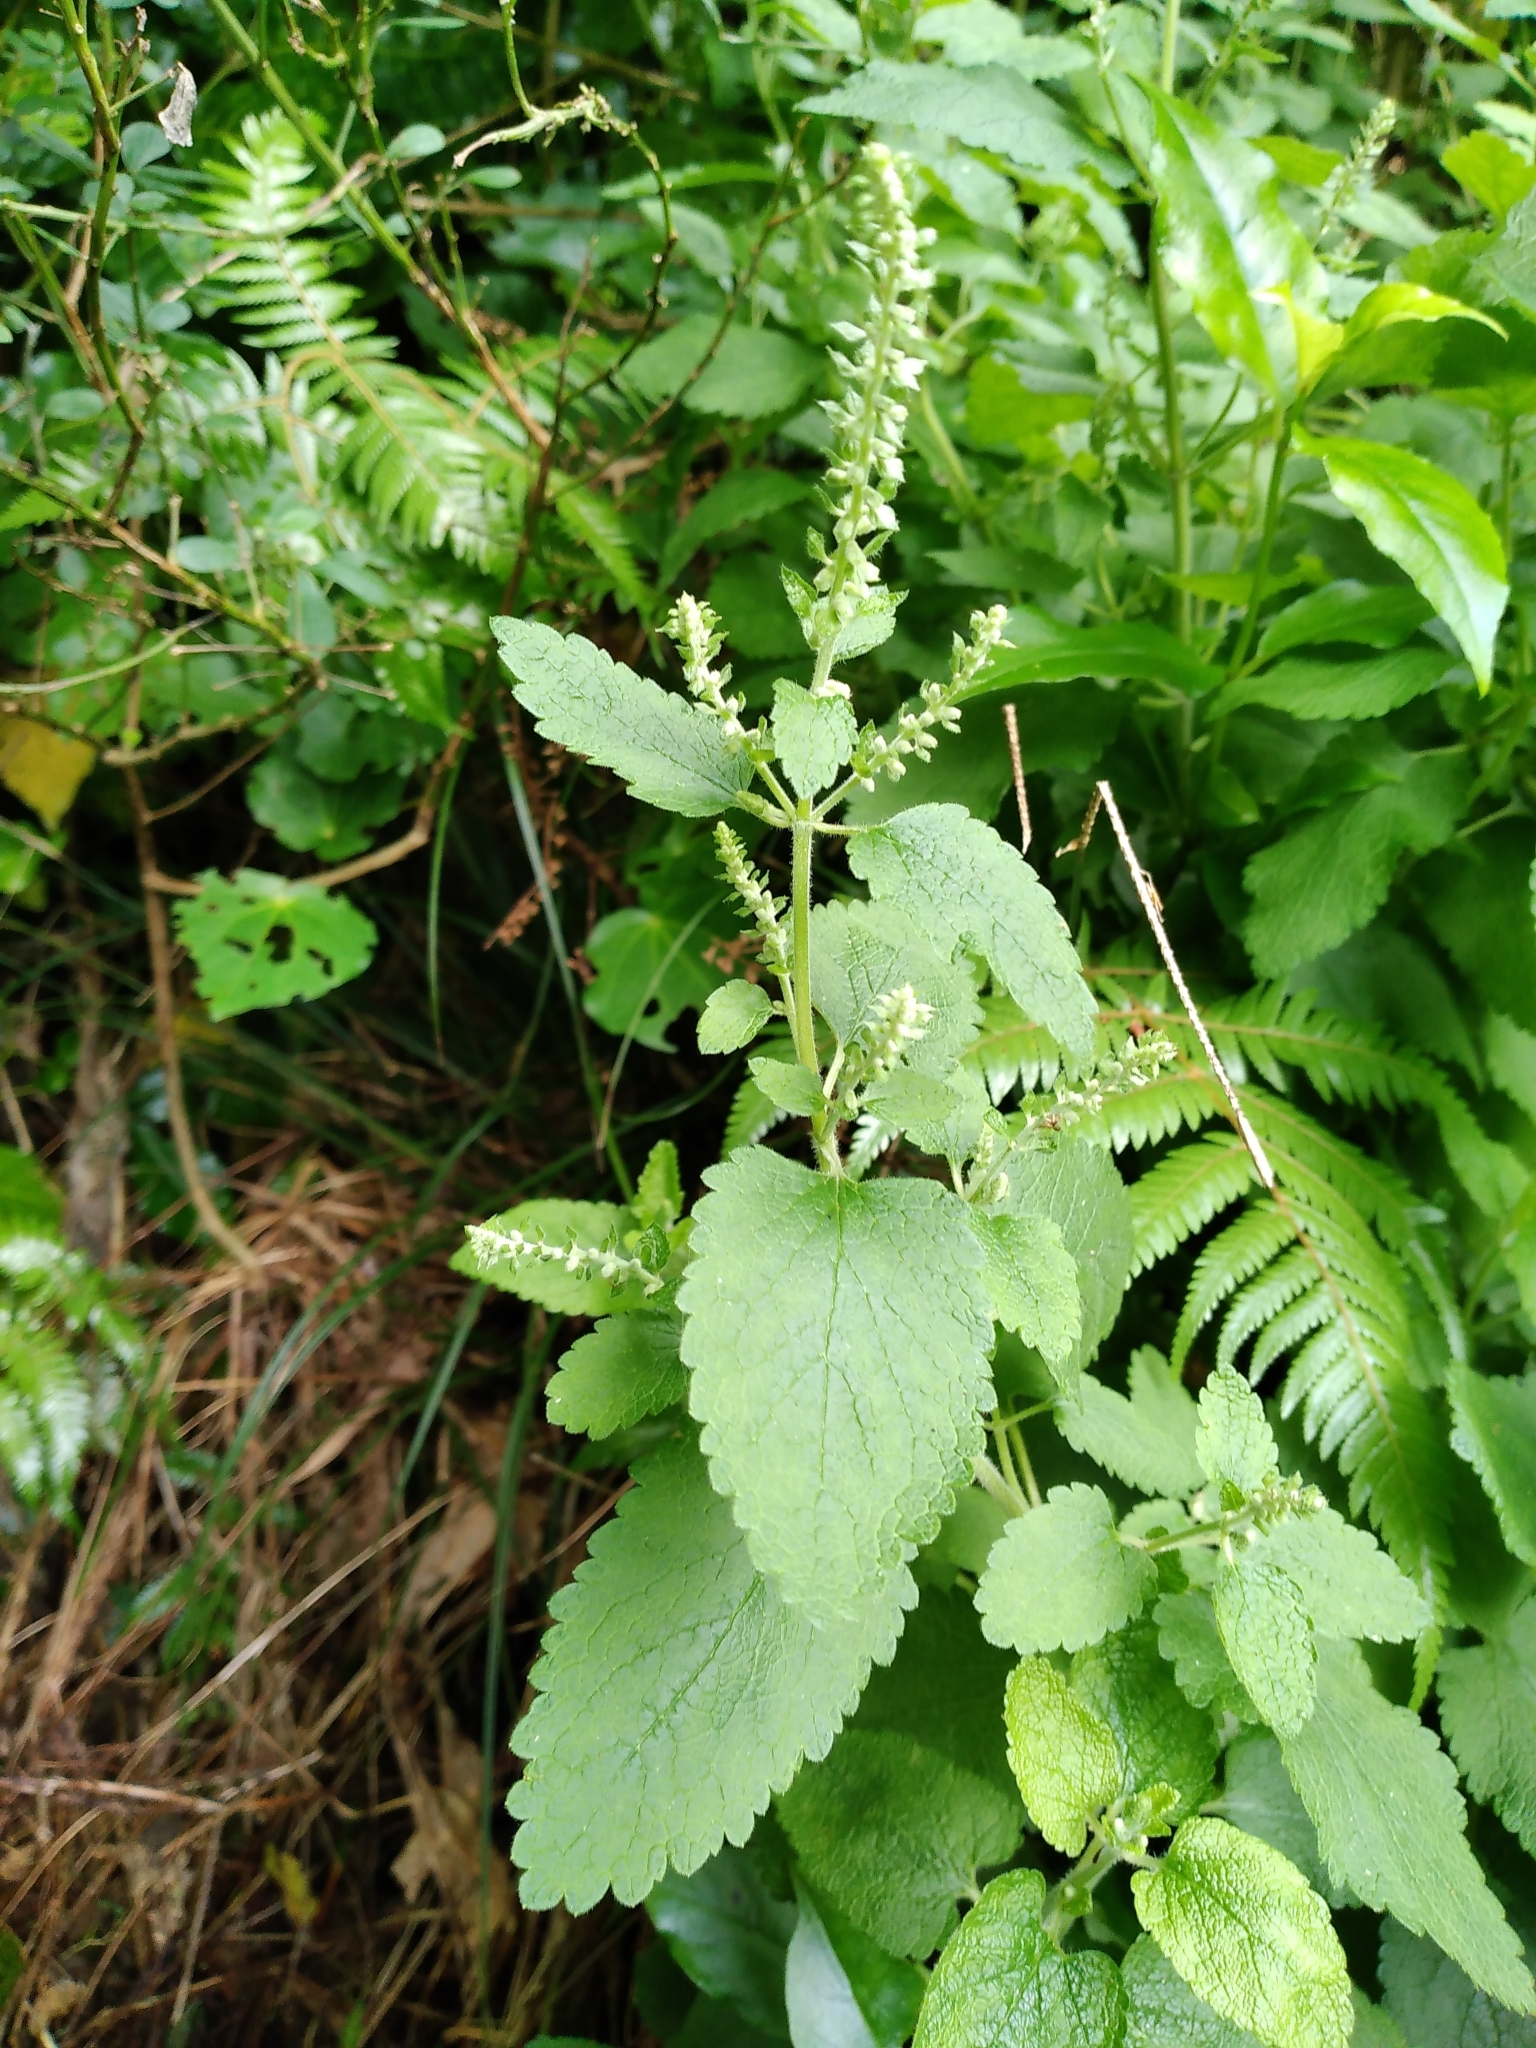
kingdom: Plantae
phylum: Tracheophyta
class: Magnoliopsida
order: Lamiales
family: Lamiaceae
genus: Teucrium
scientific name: Teucrium scorodonia
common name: Woodland germander
